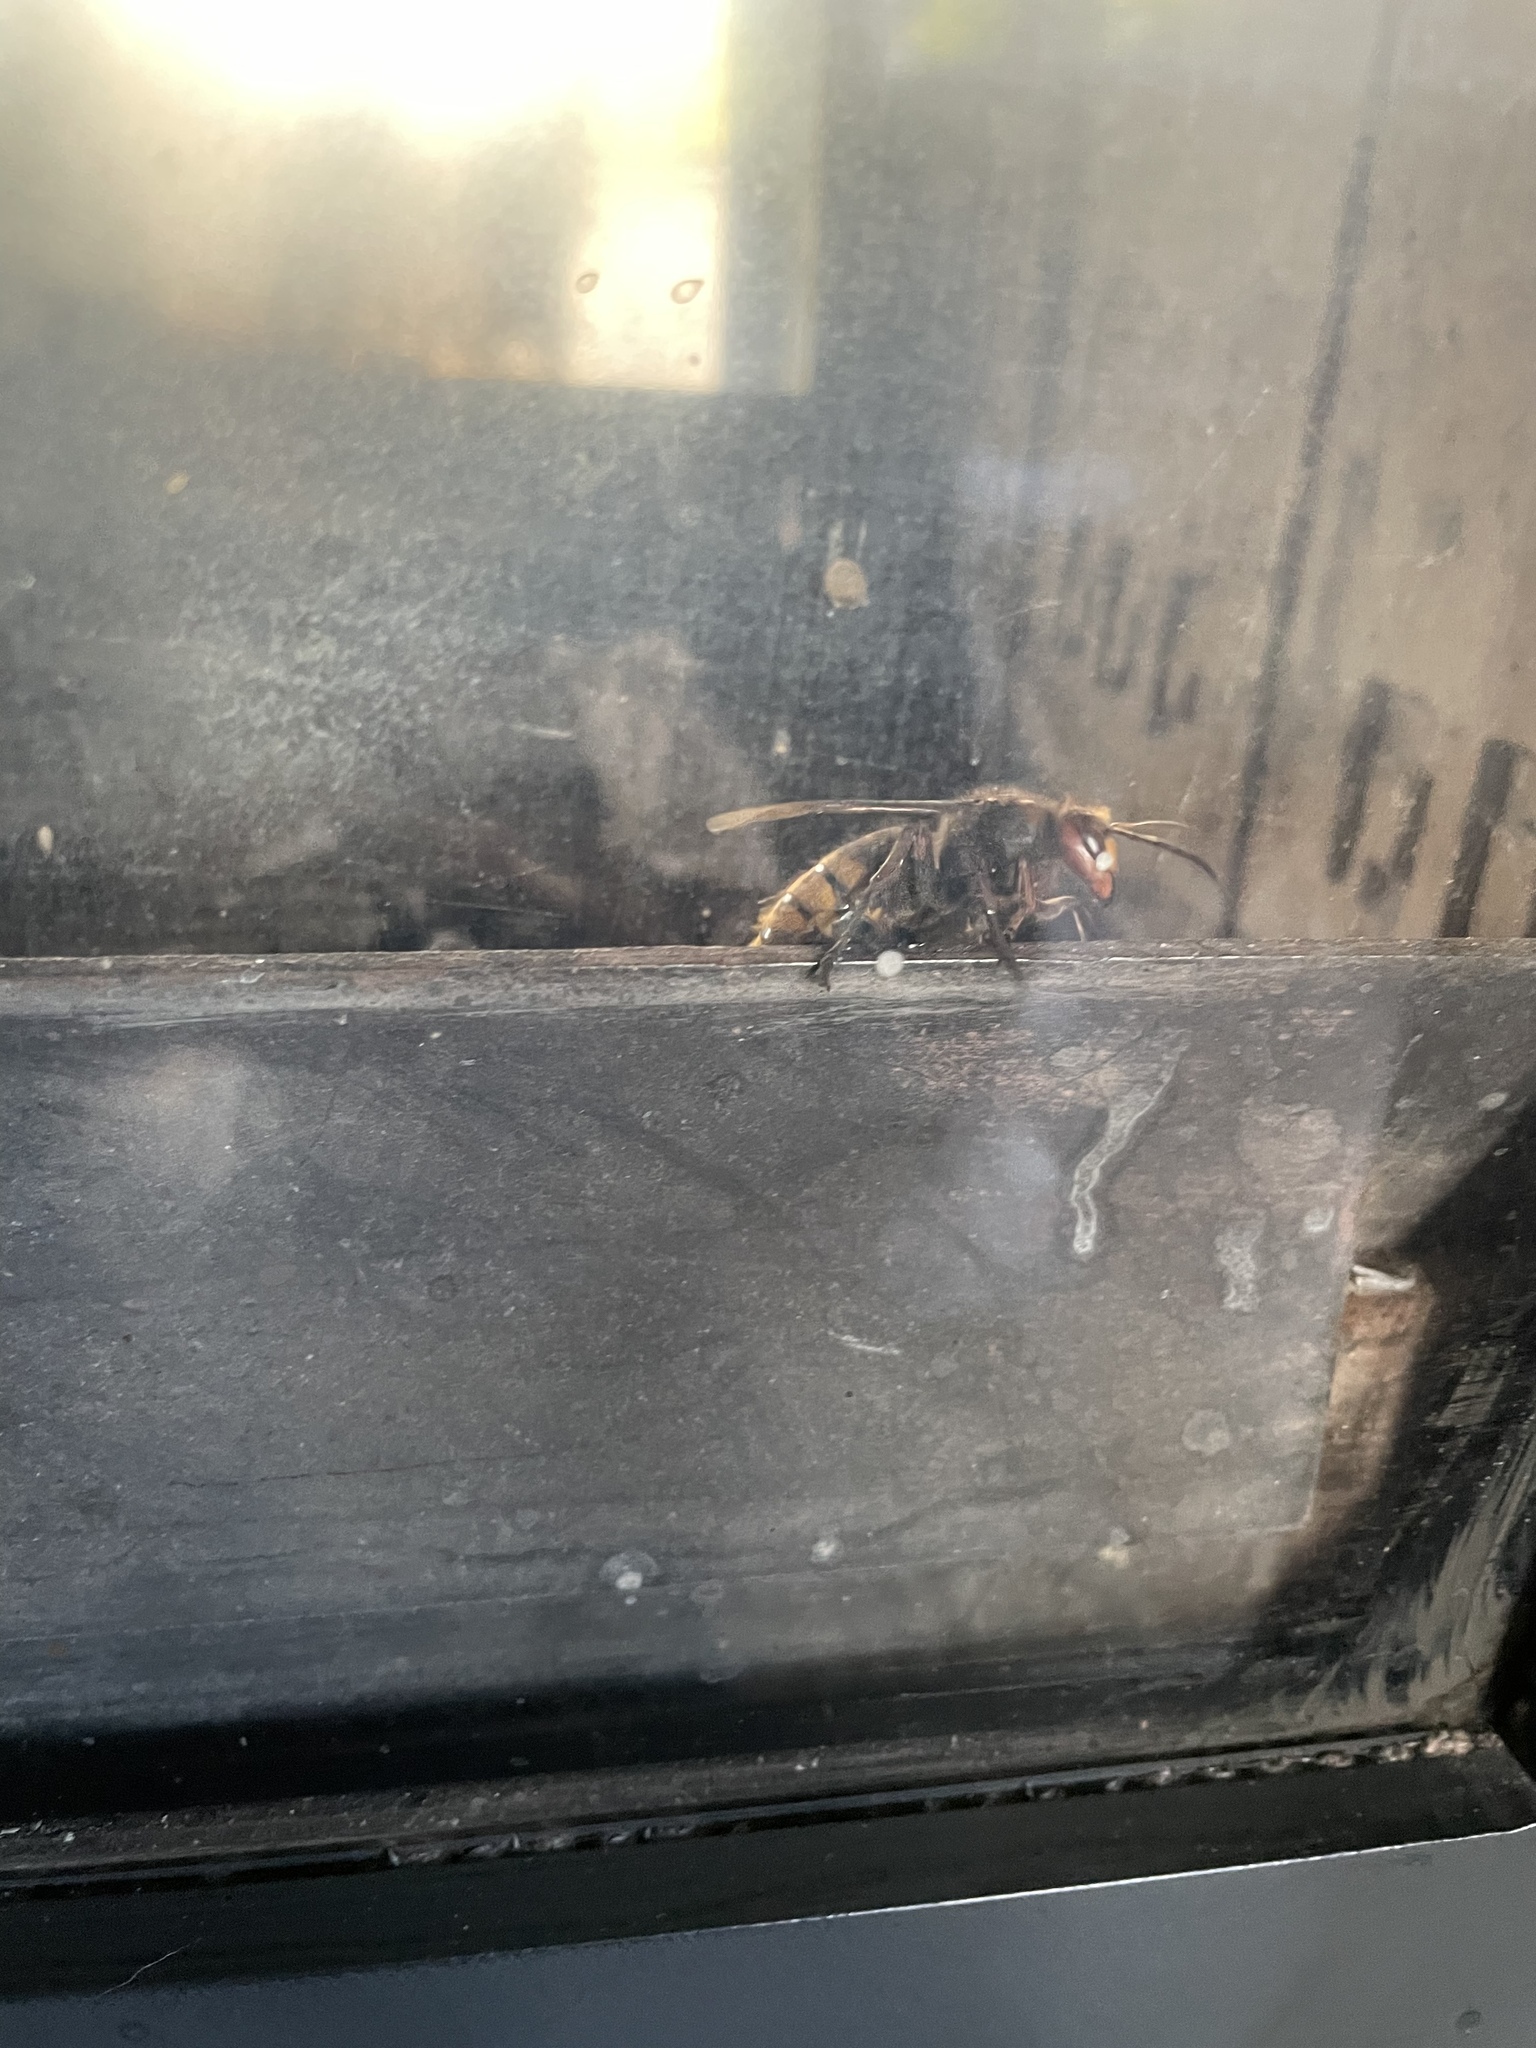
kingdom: Animalia
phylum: Arthropoda
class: Insecta
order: Hymenoptera
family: Vespidae
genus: Vespa
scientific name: Vespa crabro
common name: Hornet
